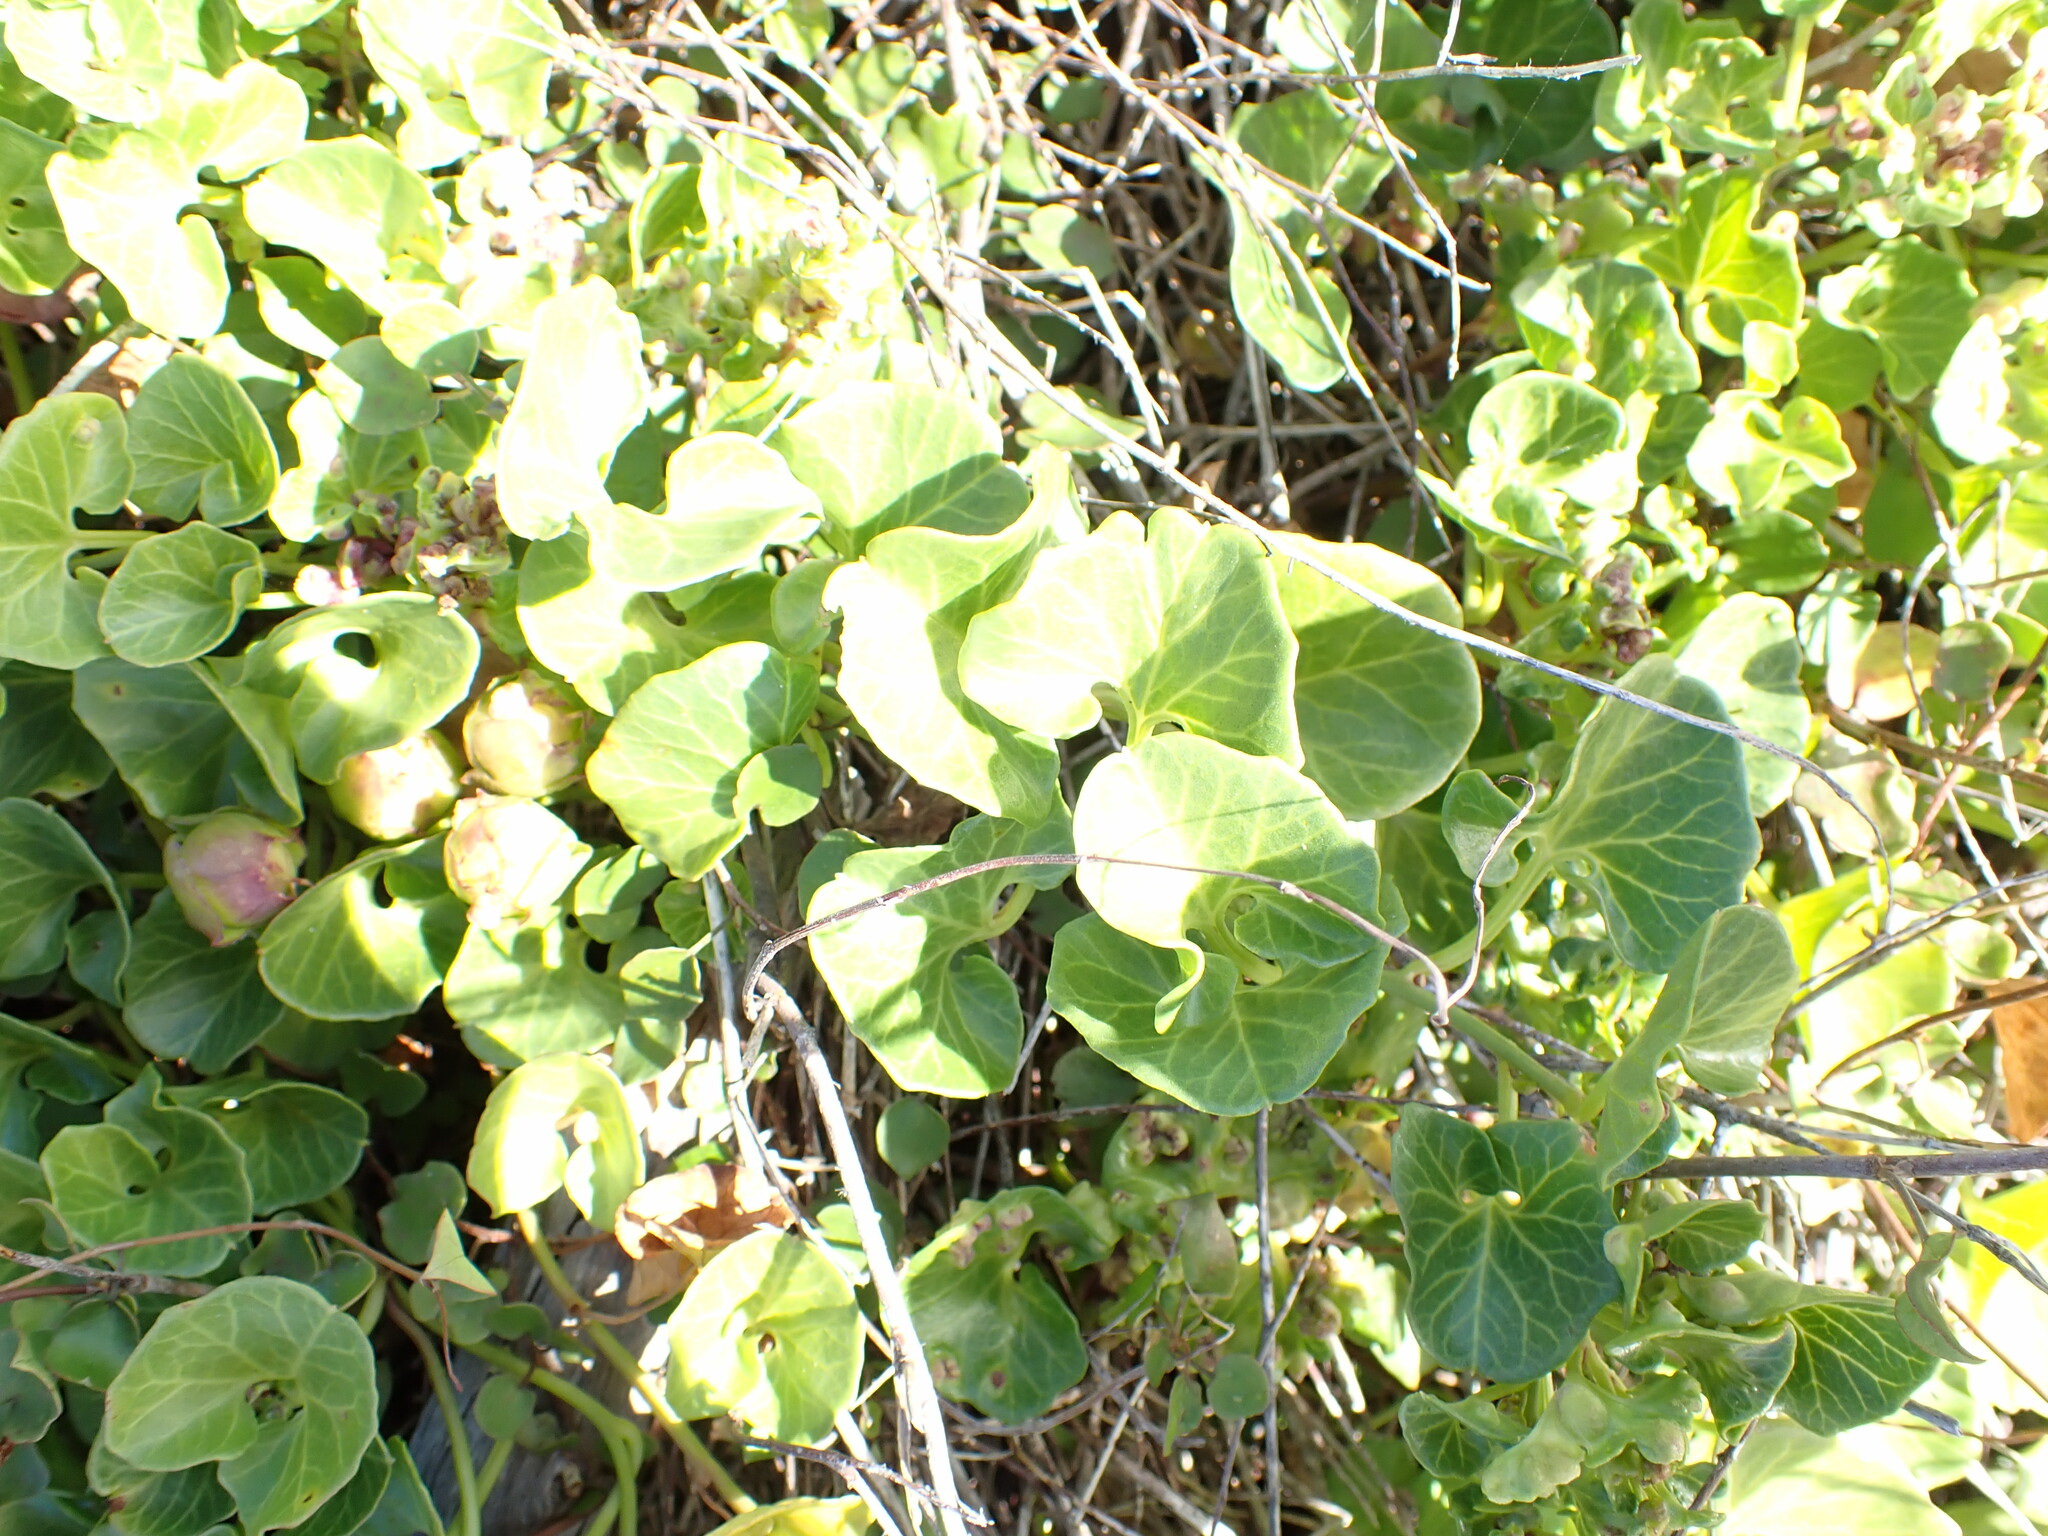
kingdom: Plantae
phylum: Tracheophyta
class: Magnoliopsida
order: Solanales
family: Convolvulaceae
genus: Calystegia
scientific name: Calystegia soldanella
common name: Sea bindweed
